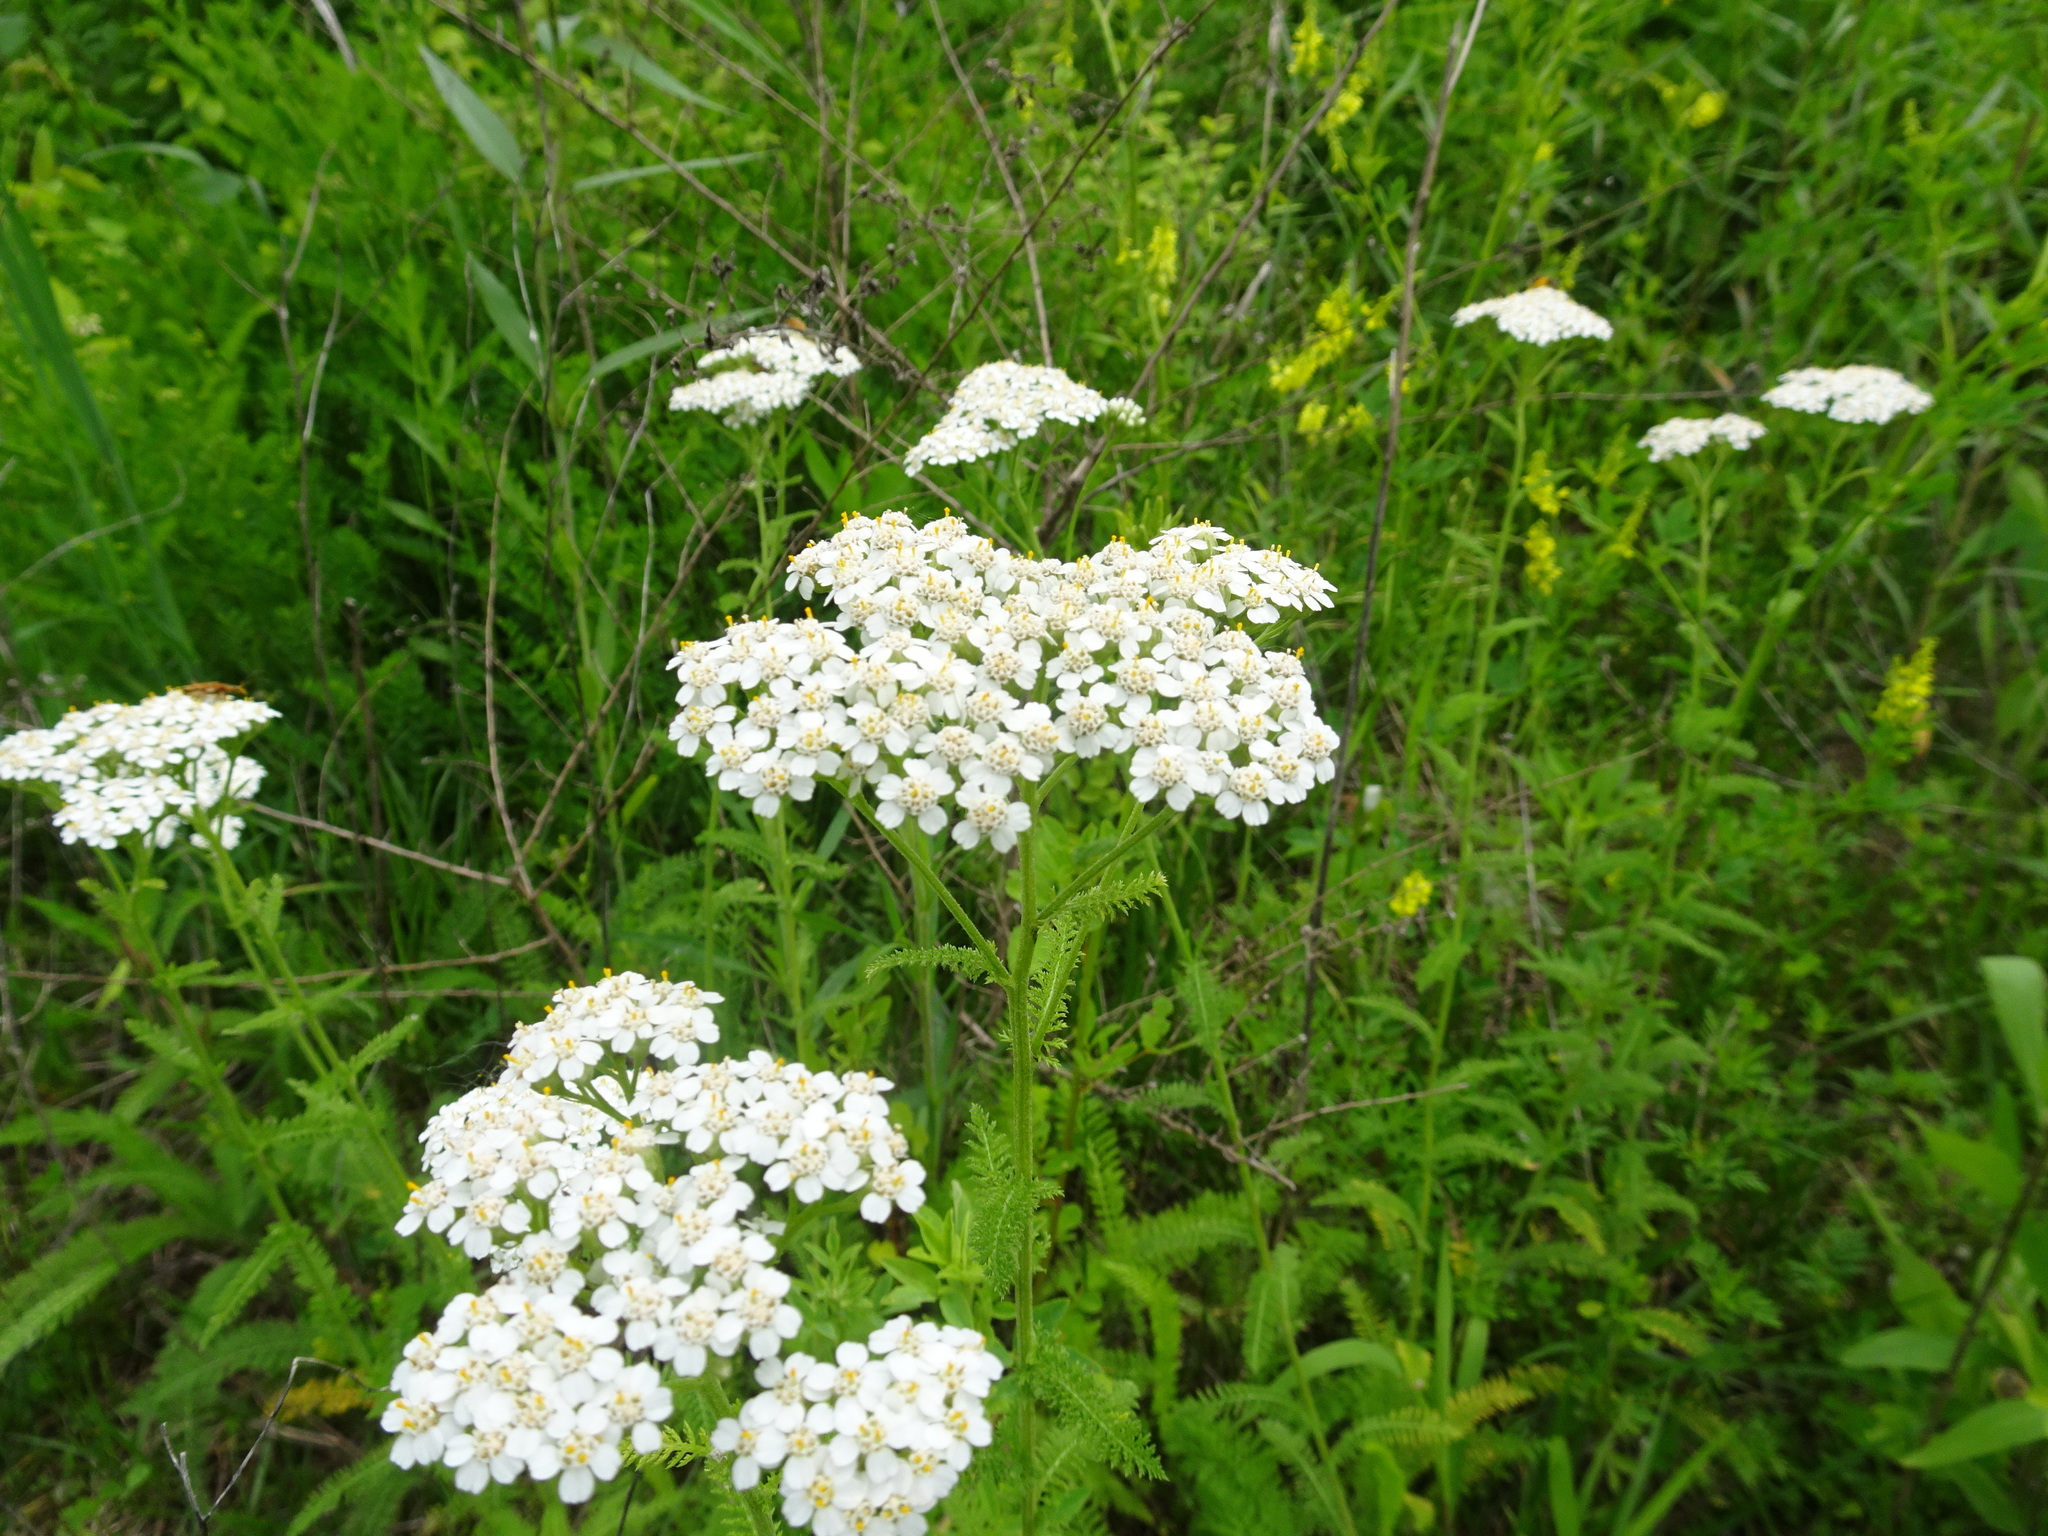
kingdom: Plantae
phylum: Tracheophyta
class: Magnoliopsida
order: Asterales
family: Asteraceae
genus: Achillea
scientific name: Achillea millefolium
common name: Yarrow
